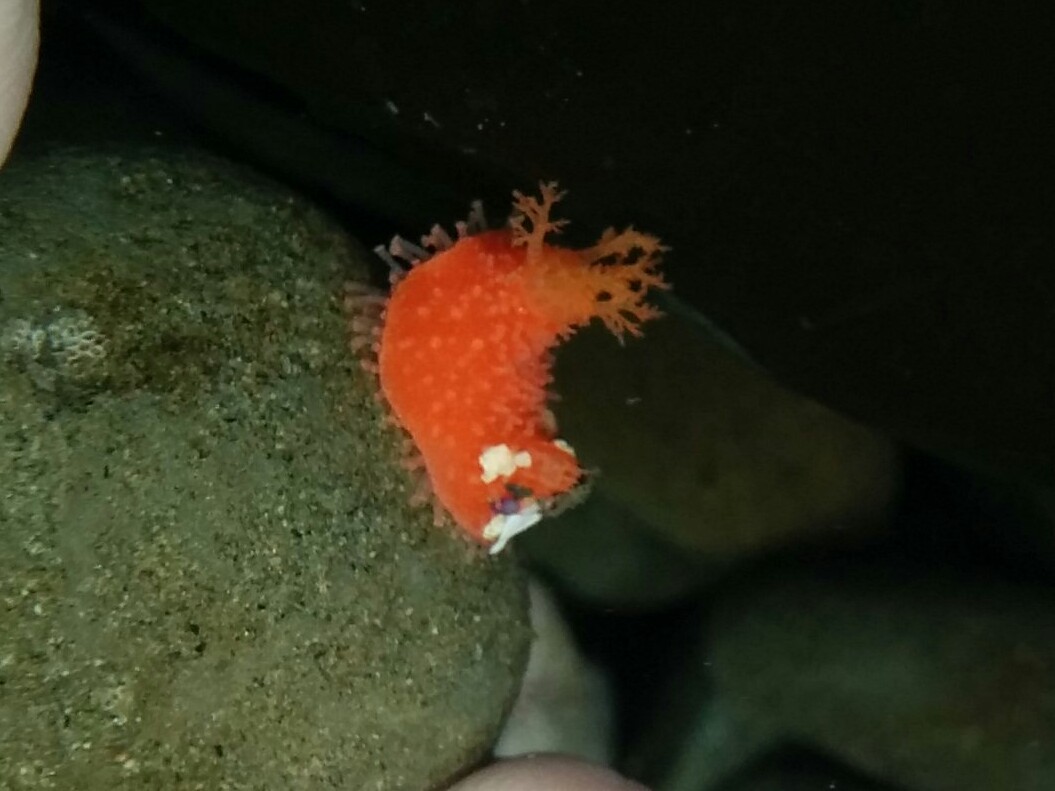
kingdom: Animalia
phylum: Echinodermata
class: Holothuroidea
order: Dendrochirotida
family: Psolidae
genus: Lissothuria
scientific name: Lissothuria nutriens
